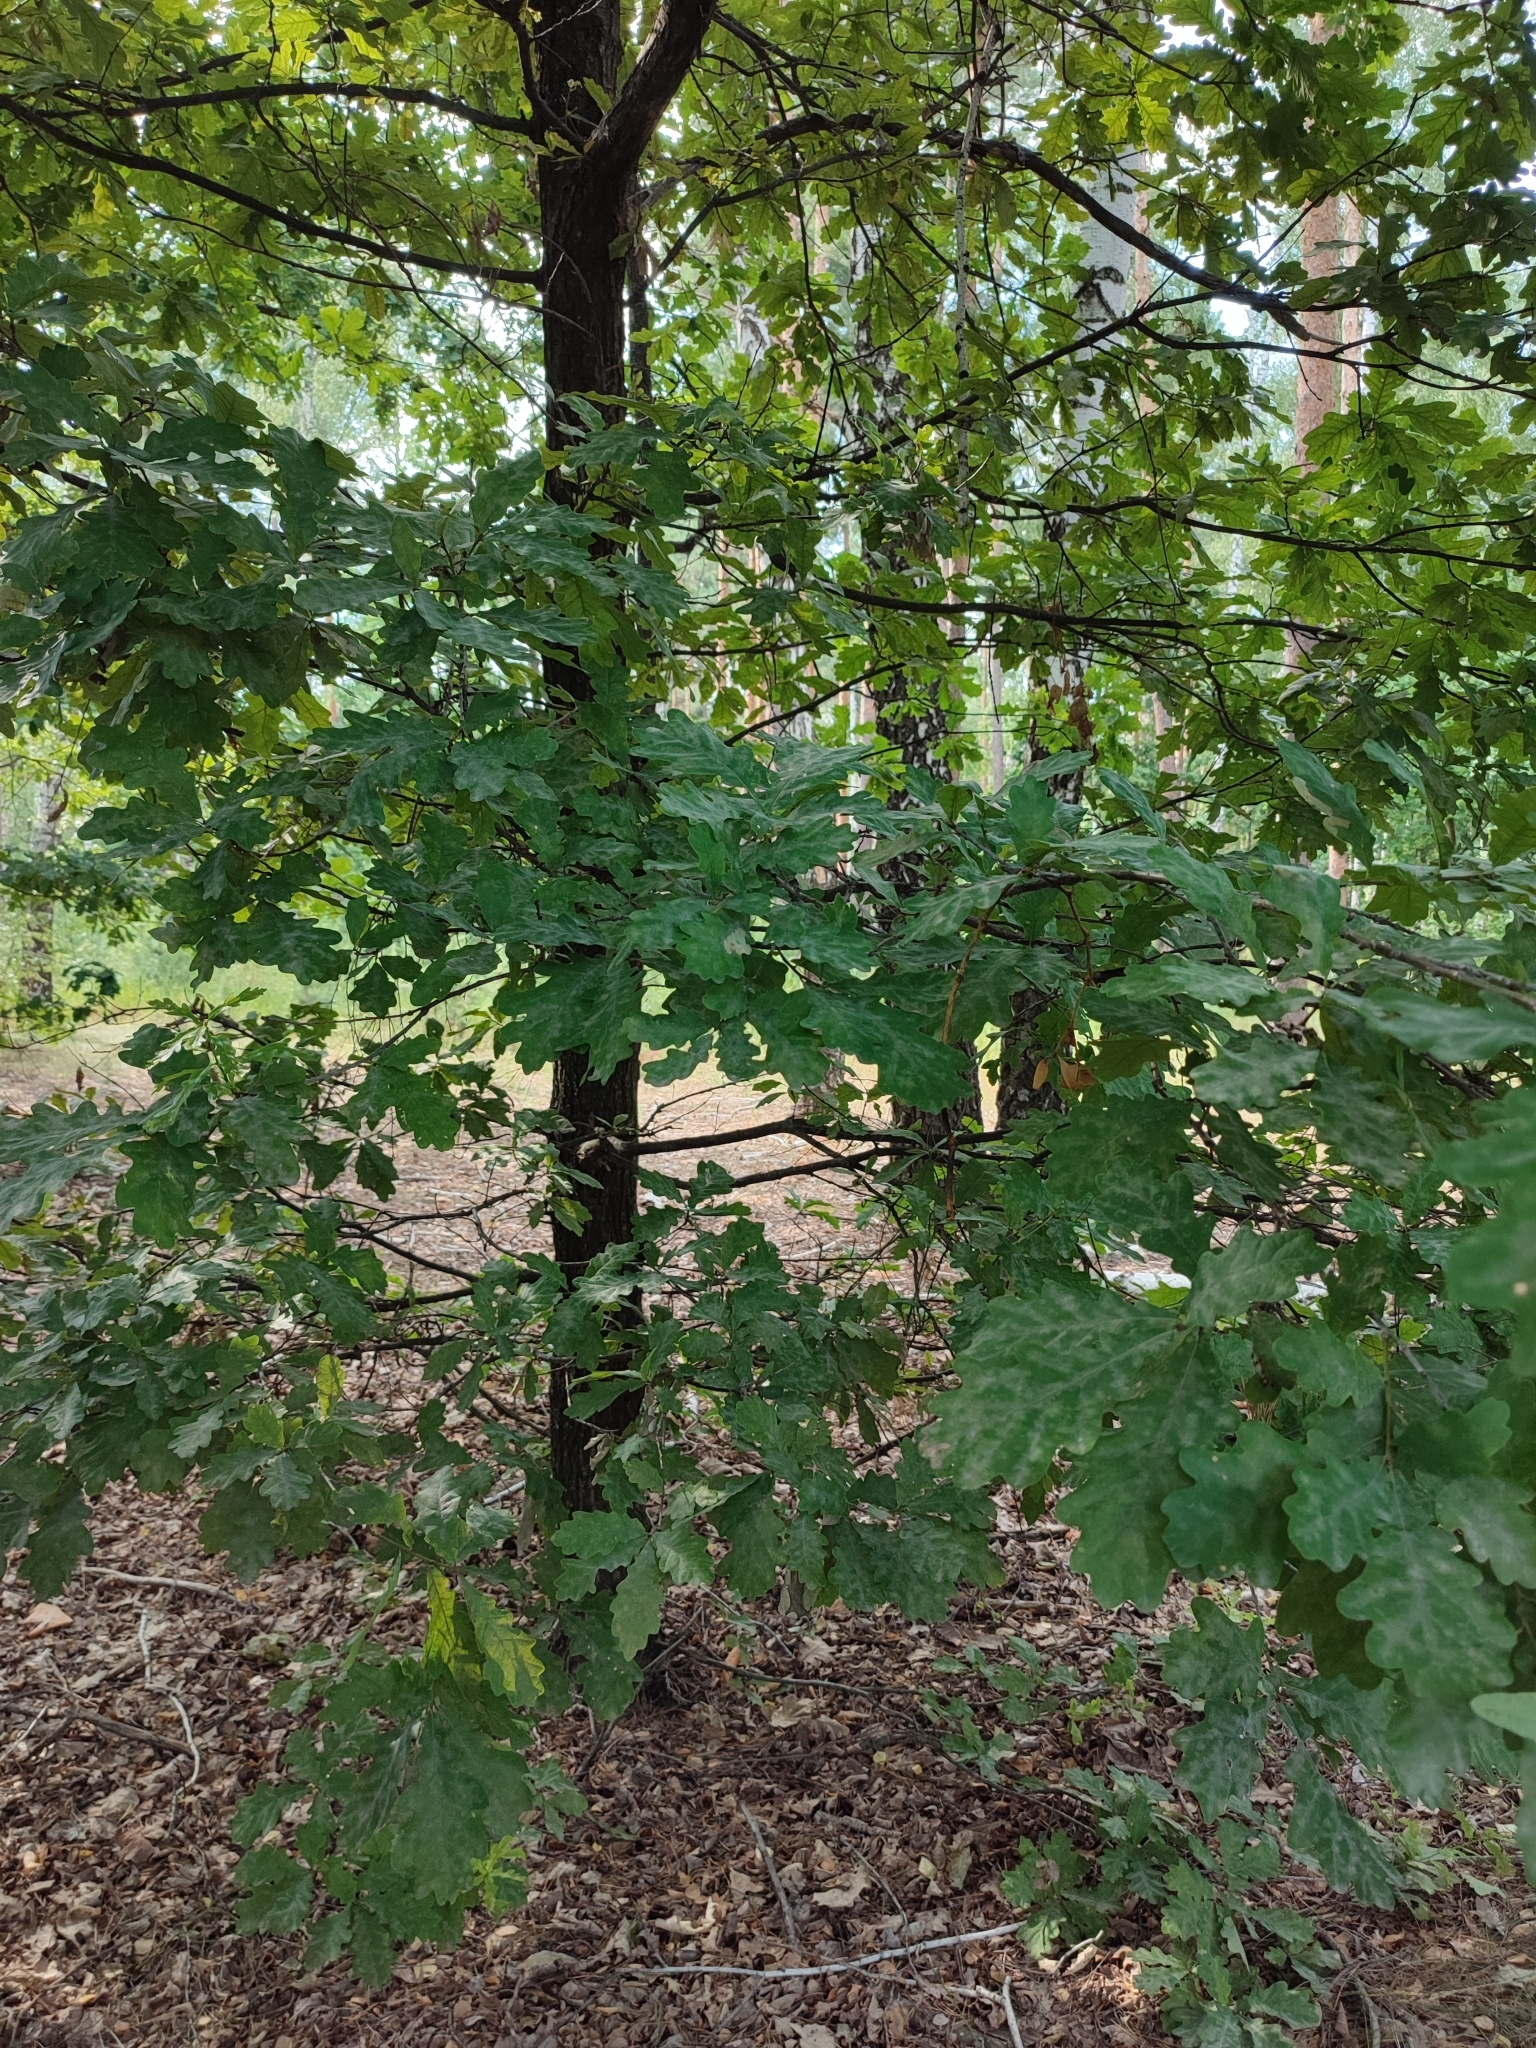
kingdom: Plantae
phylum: Tracheophyta
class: Magnoliopsida
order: Fagales
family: Fagaceae
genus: Quercus
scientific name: Quercus robur
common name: Pedunculate oak
